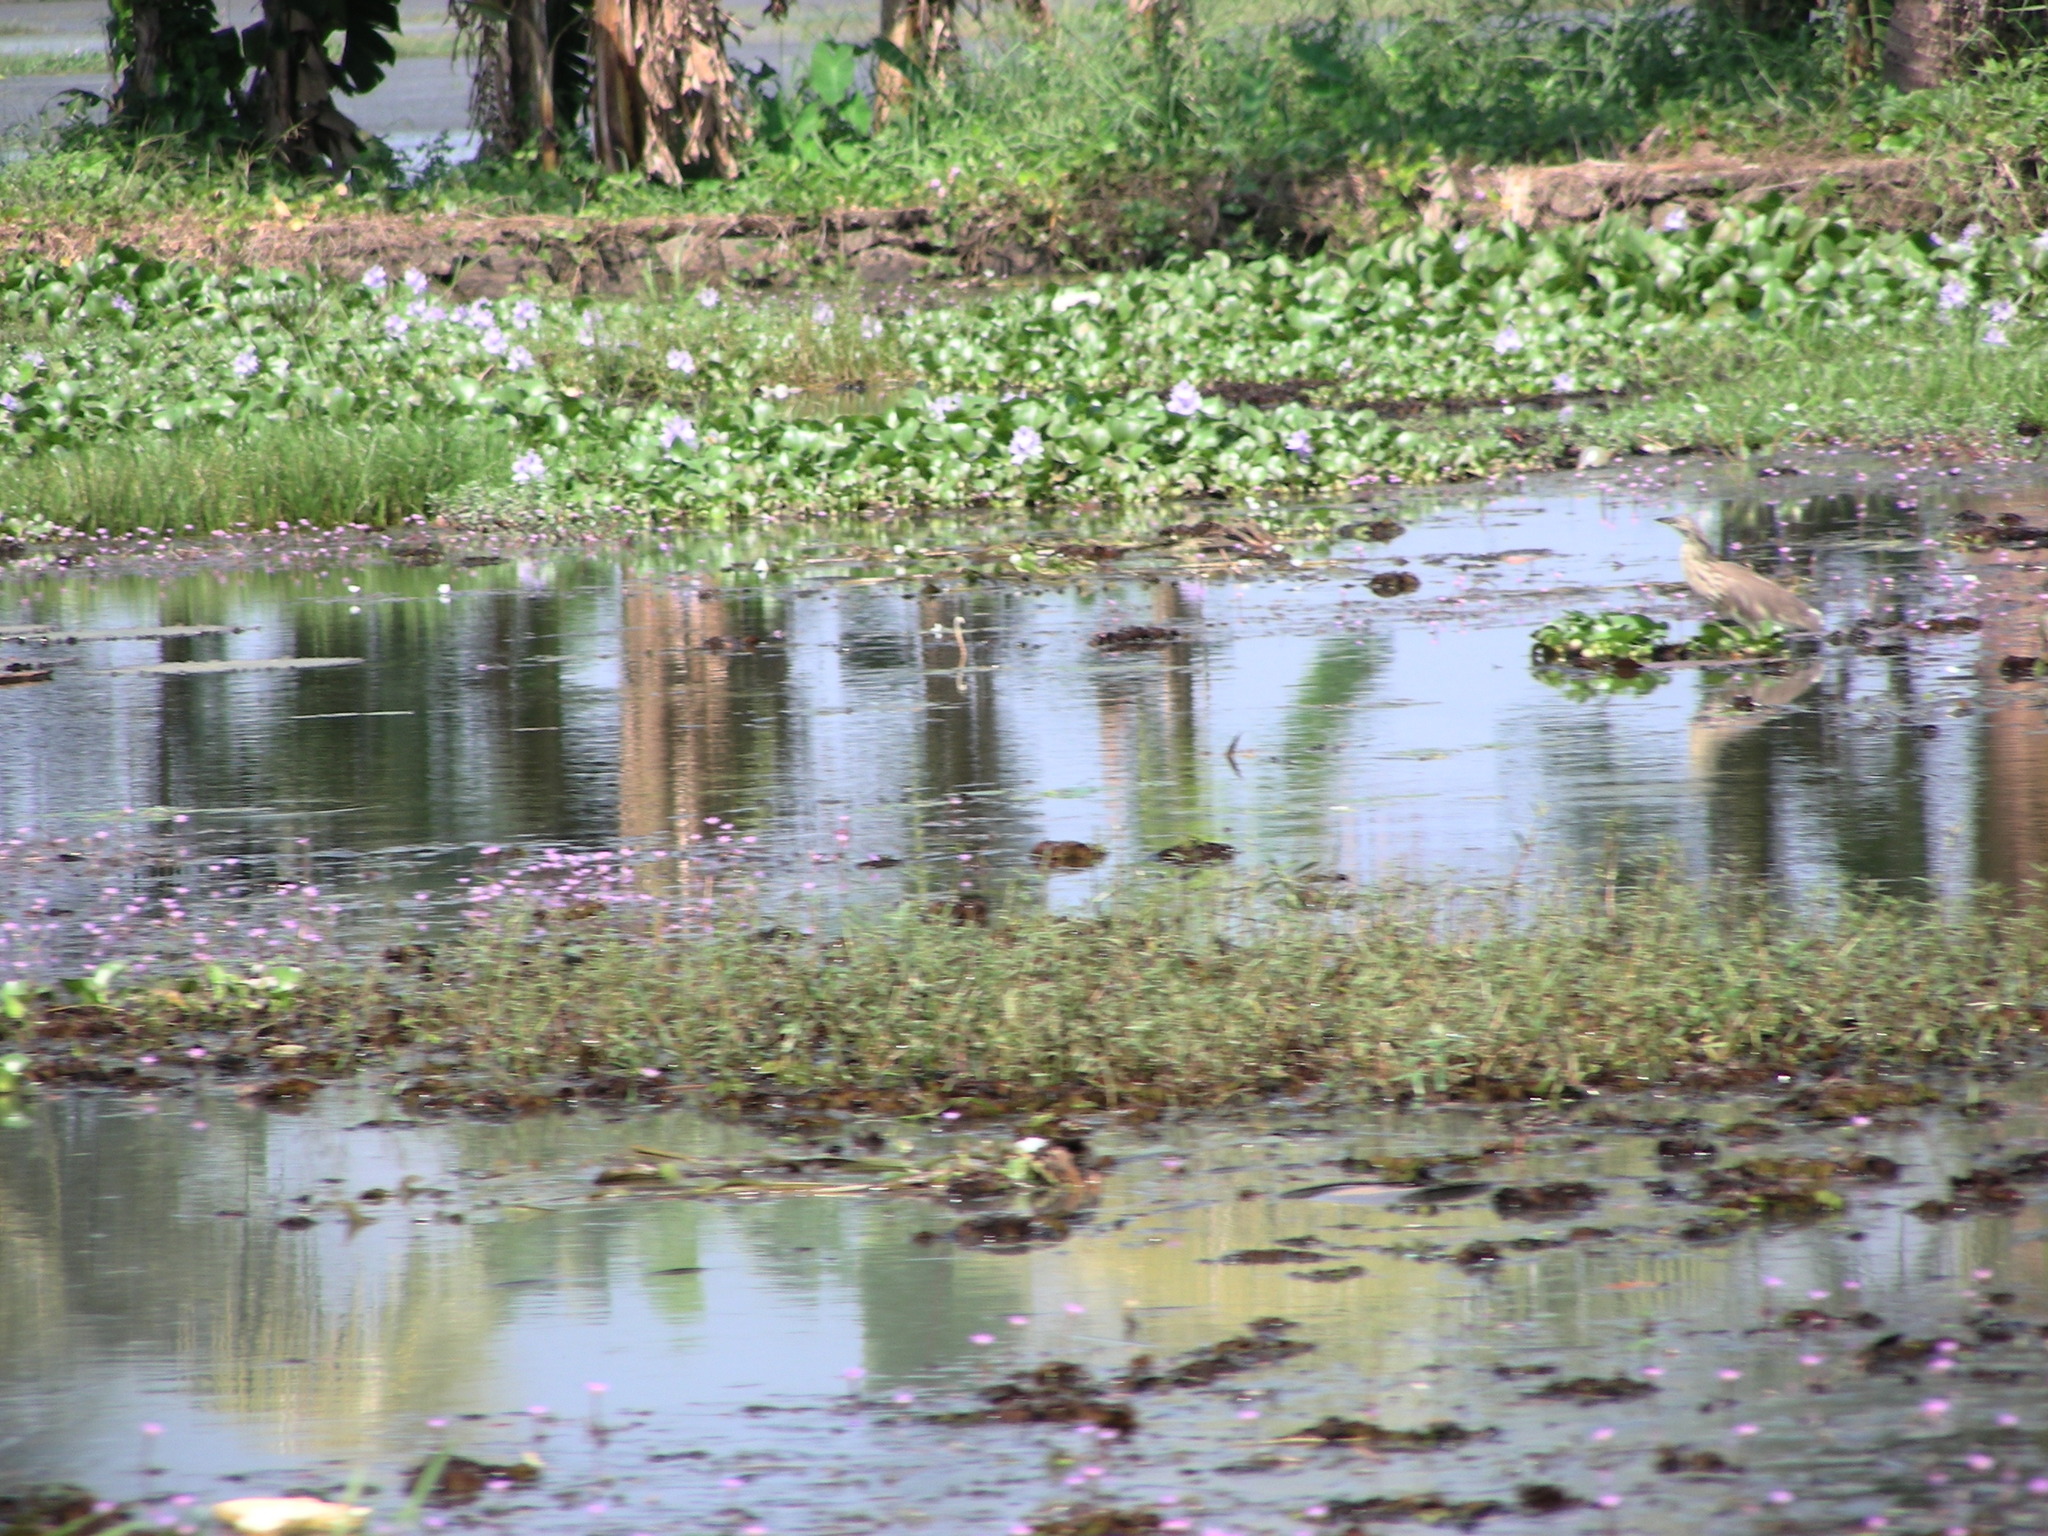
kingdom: Animalia
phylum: Chordata
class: Aves
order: Pelecaniformes
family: Ardeidae
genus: Ardeola
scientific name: Ardeola grayii
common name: Indian pond heron
